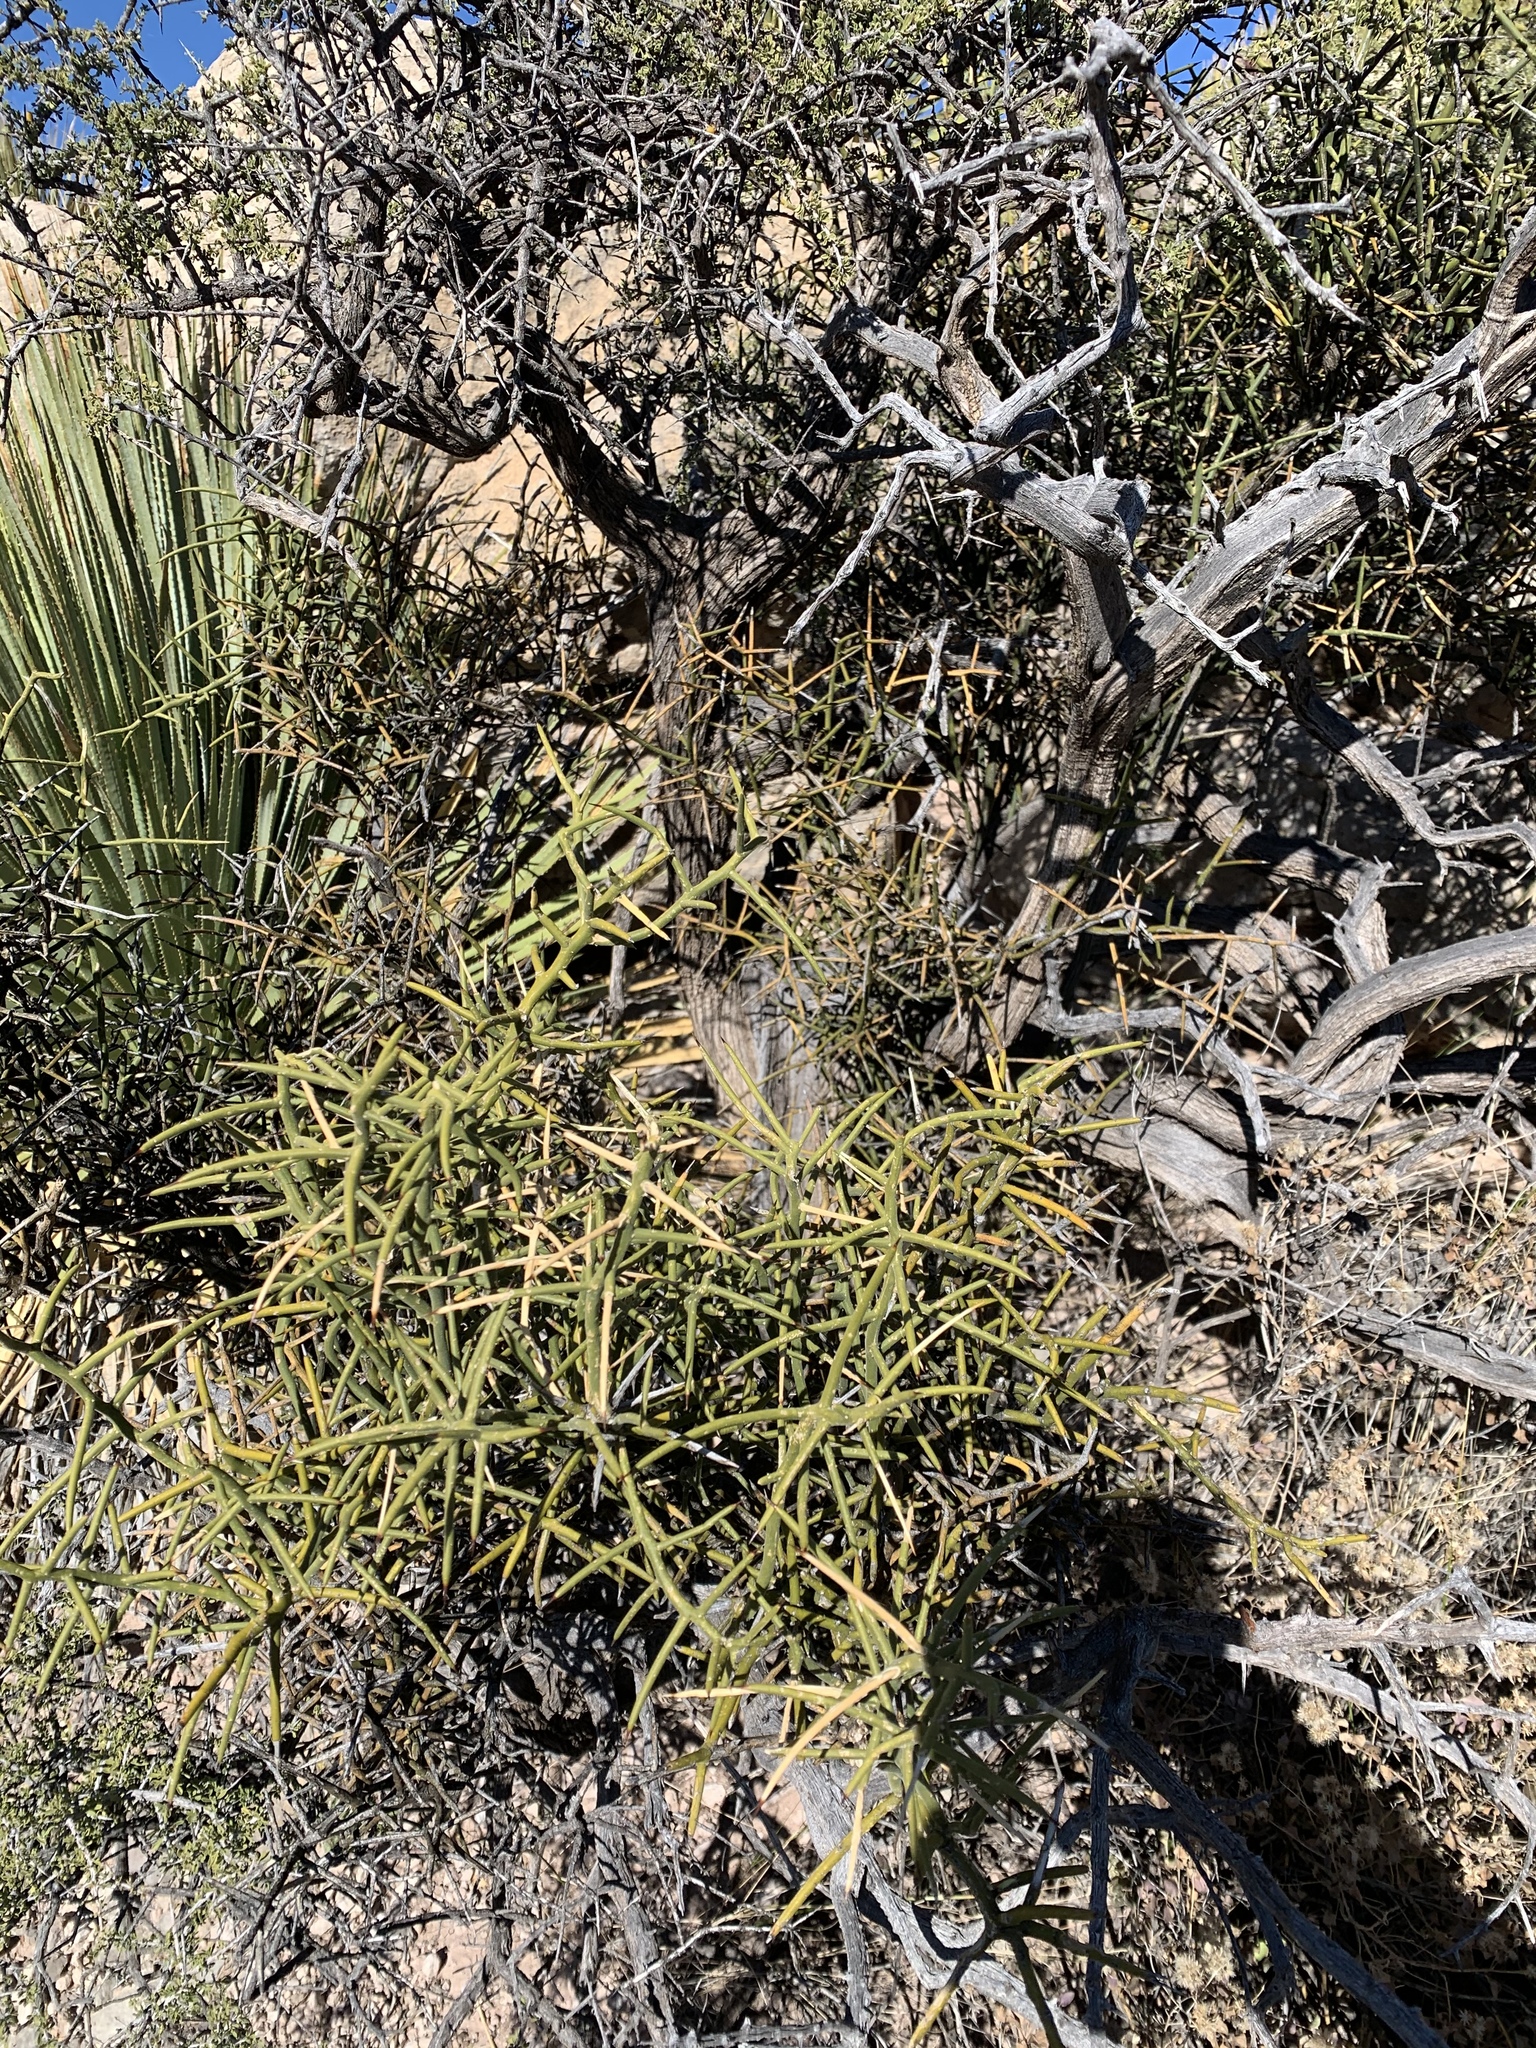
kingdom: Plantae
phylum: Tracheophyta
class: Magnoliopsida
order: Brassicales
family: Koeberliniaceae
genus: Koeberlinia
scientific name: Koeberlinia spinosa
